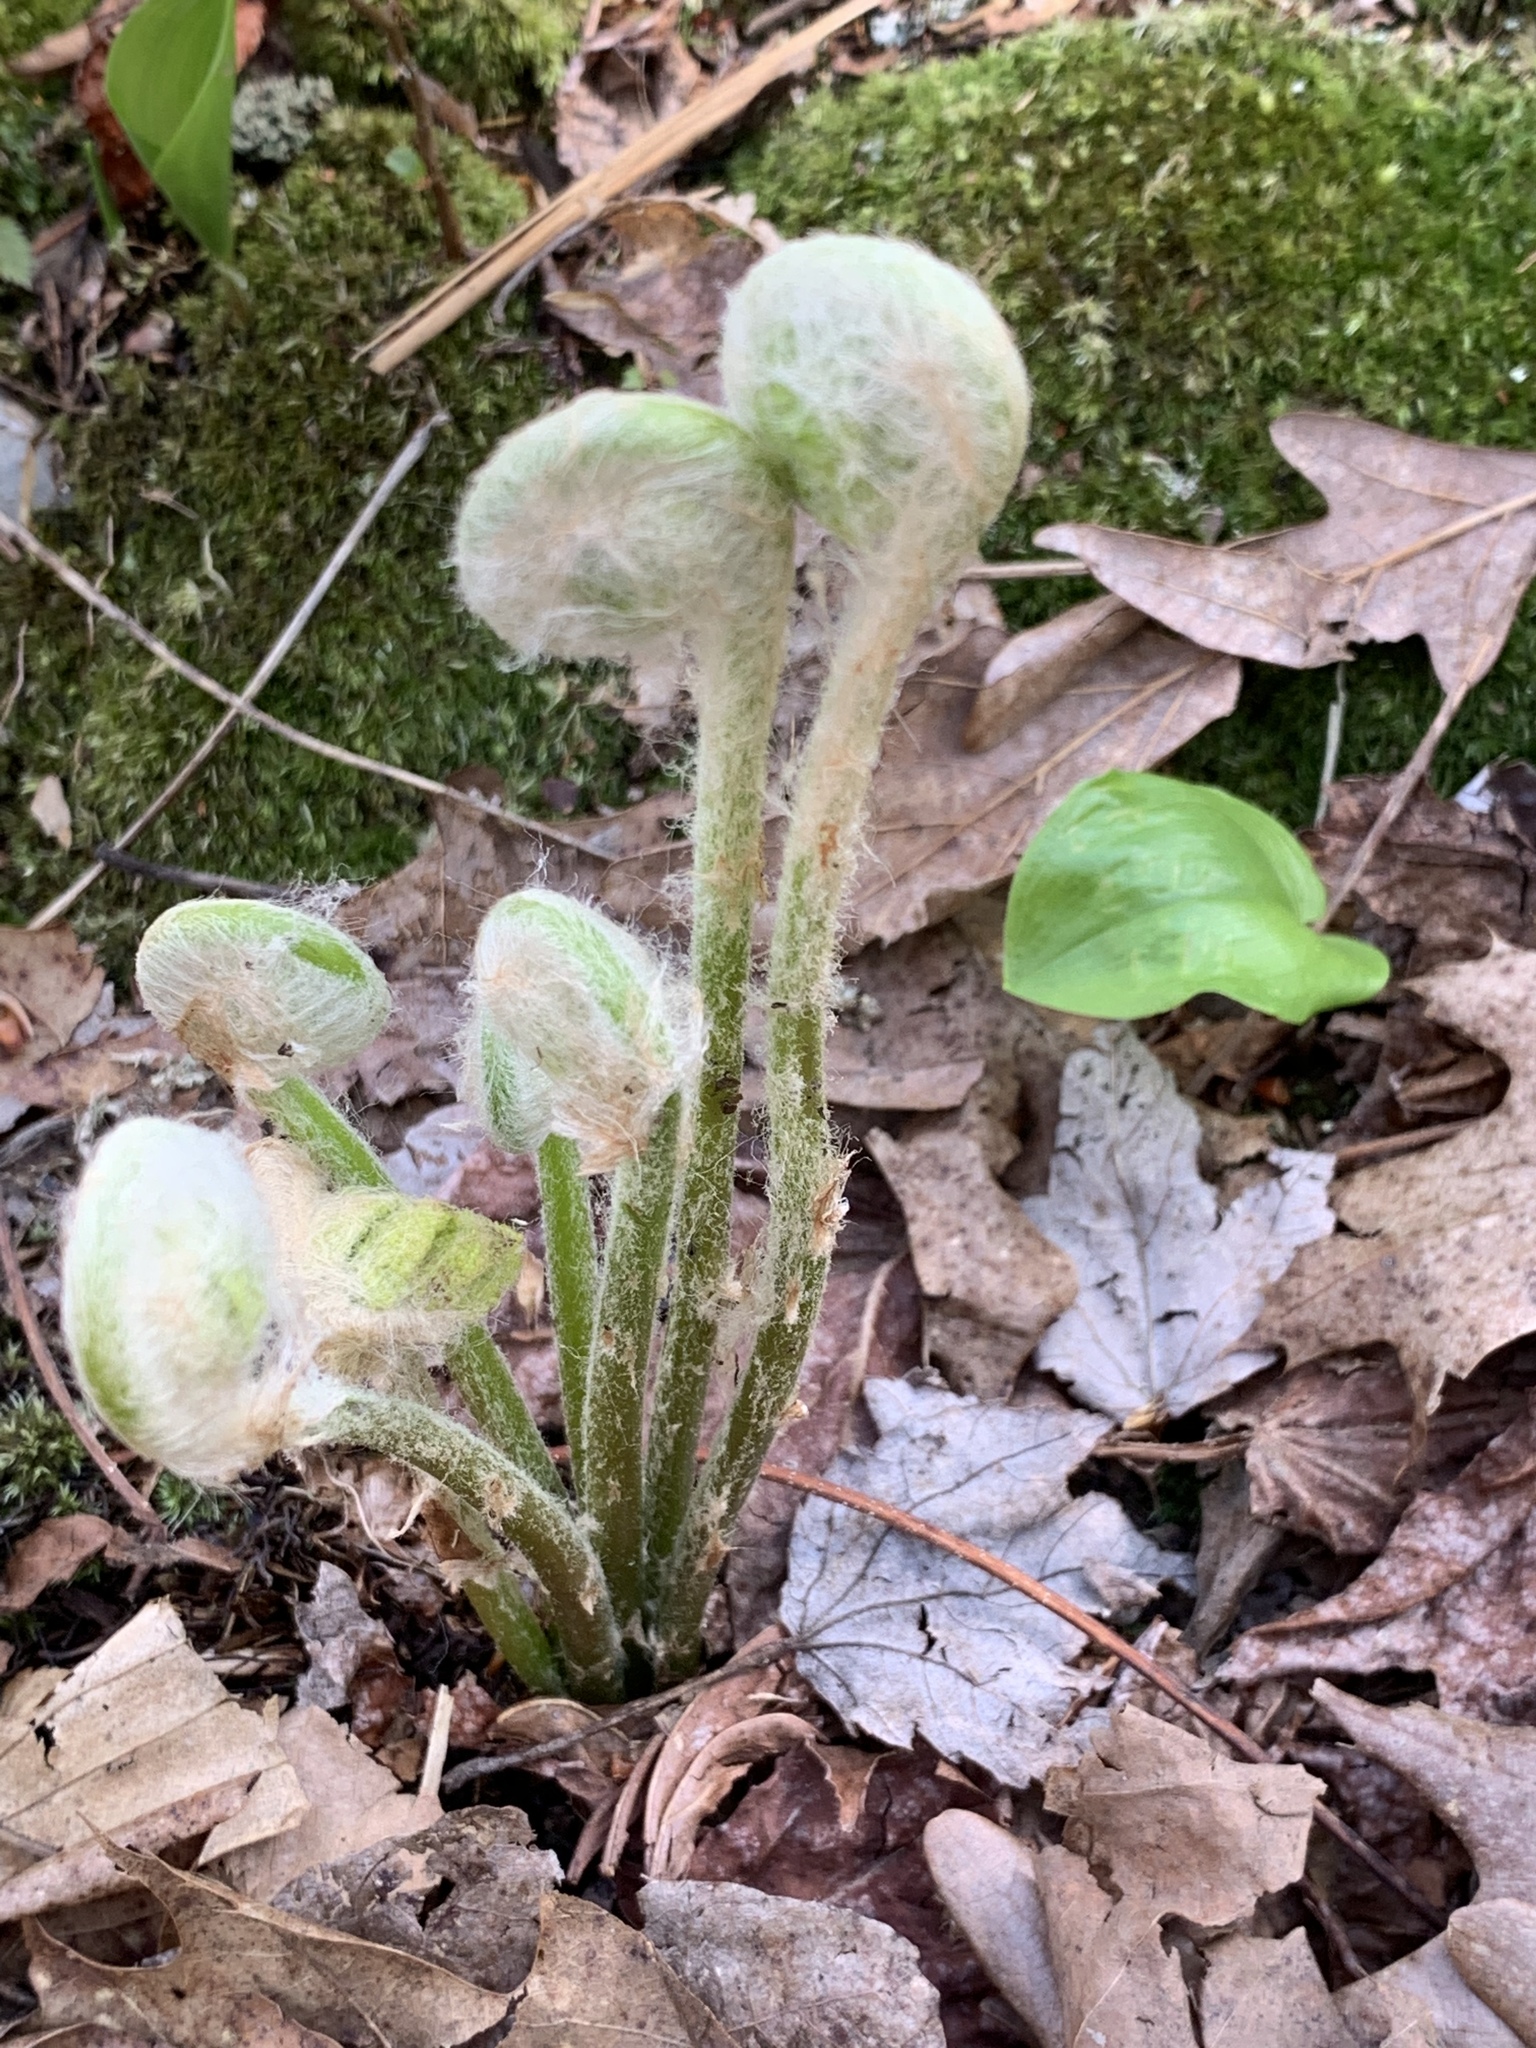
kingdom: Plantae
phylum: Tracheophyta
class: Polypodiopsida
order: Osmundales
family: Osmundaceae
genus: Osmundastrum
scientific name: Osmundastrum cinnamomeum
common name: Cinnamon fern
